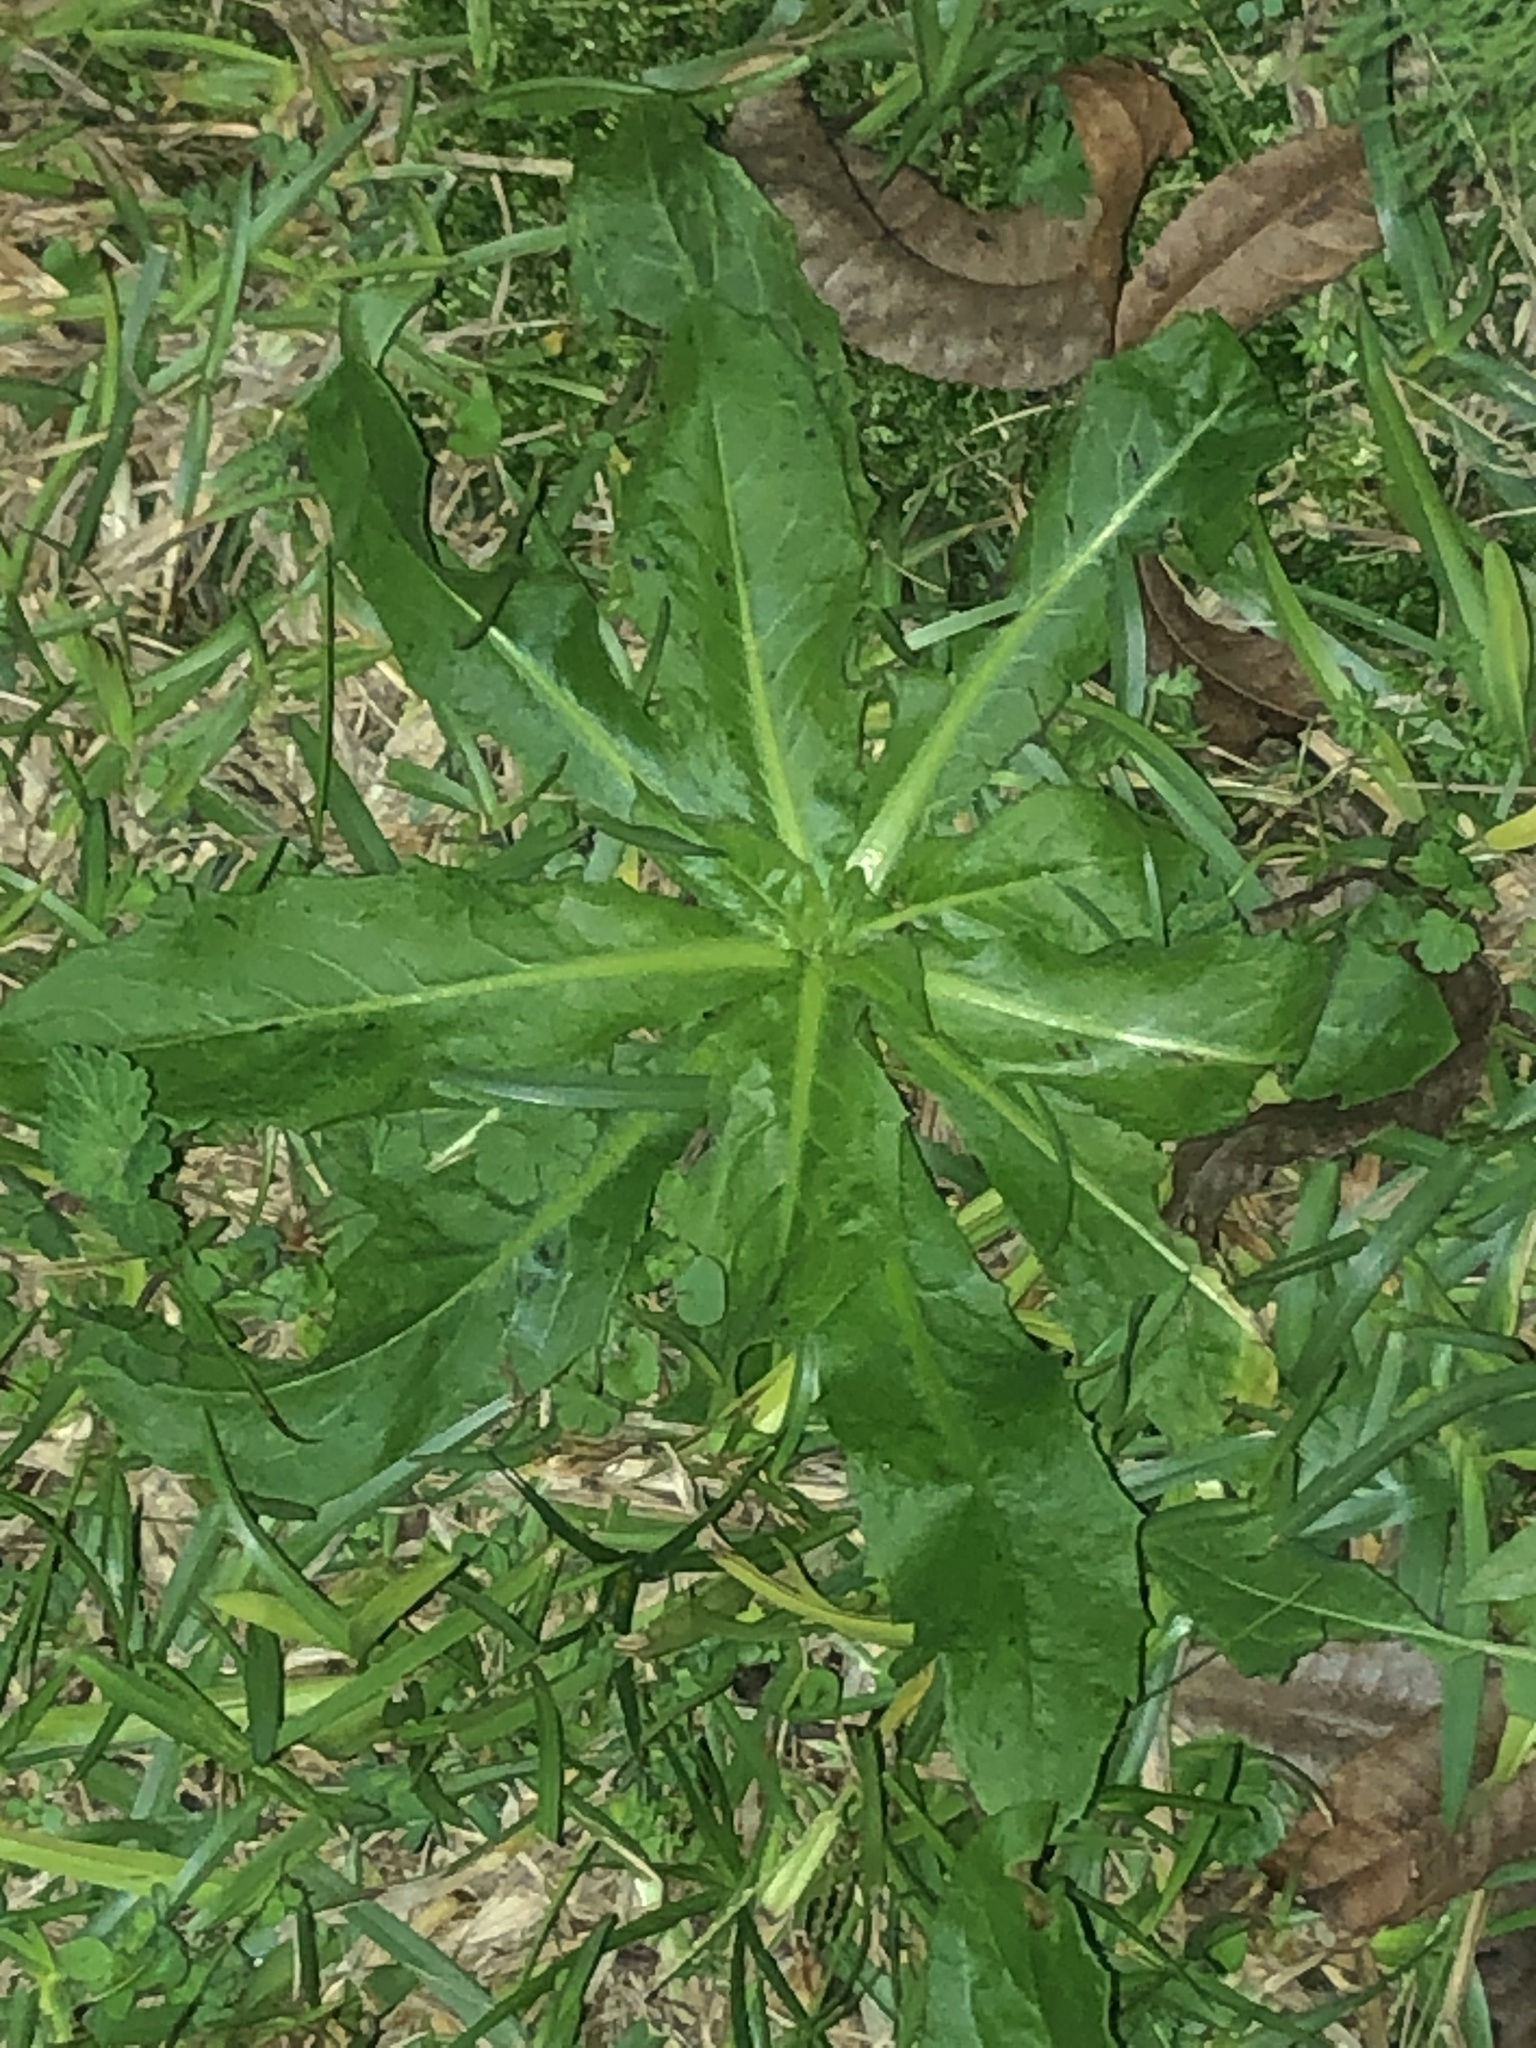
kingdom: Plantae
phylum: Tracheophyta
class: Magnoliopsida
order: Asterales
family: Asteraceae
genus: Hypochaeris
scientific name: Hypochaeris chillensis
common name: Brazilian cat's ear
